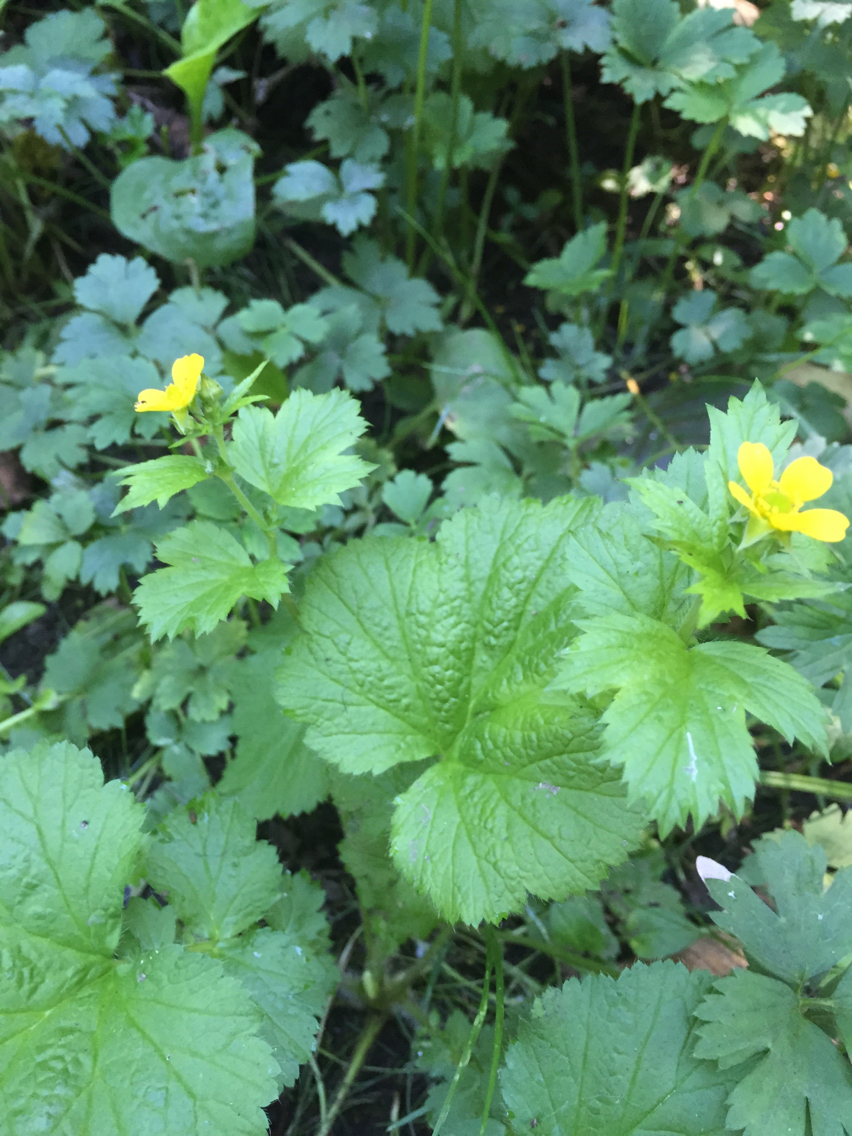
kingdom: Plantae
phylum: Tracheophyta
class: Magnoliopsida
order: Rosales
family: Rosaceae
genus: Geum
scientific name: Geum macrophyllum
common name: Large-leaved avens
